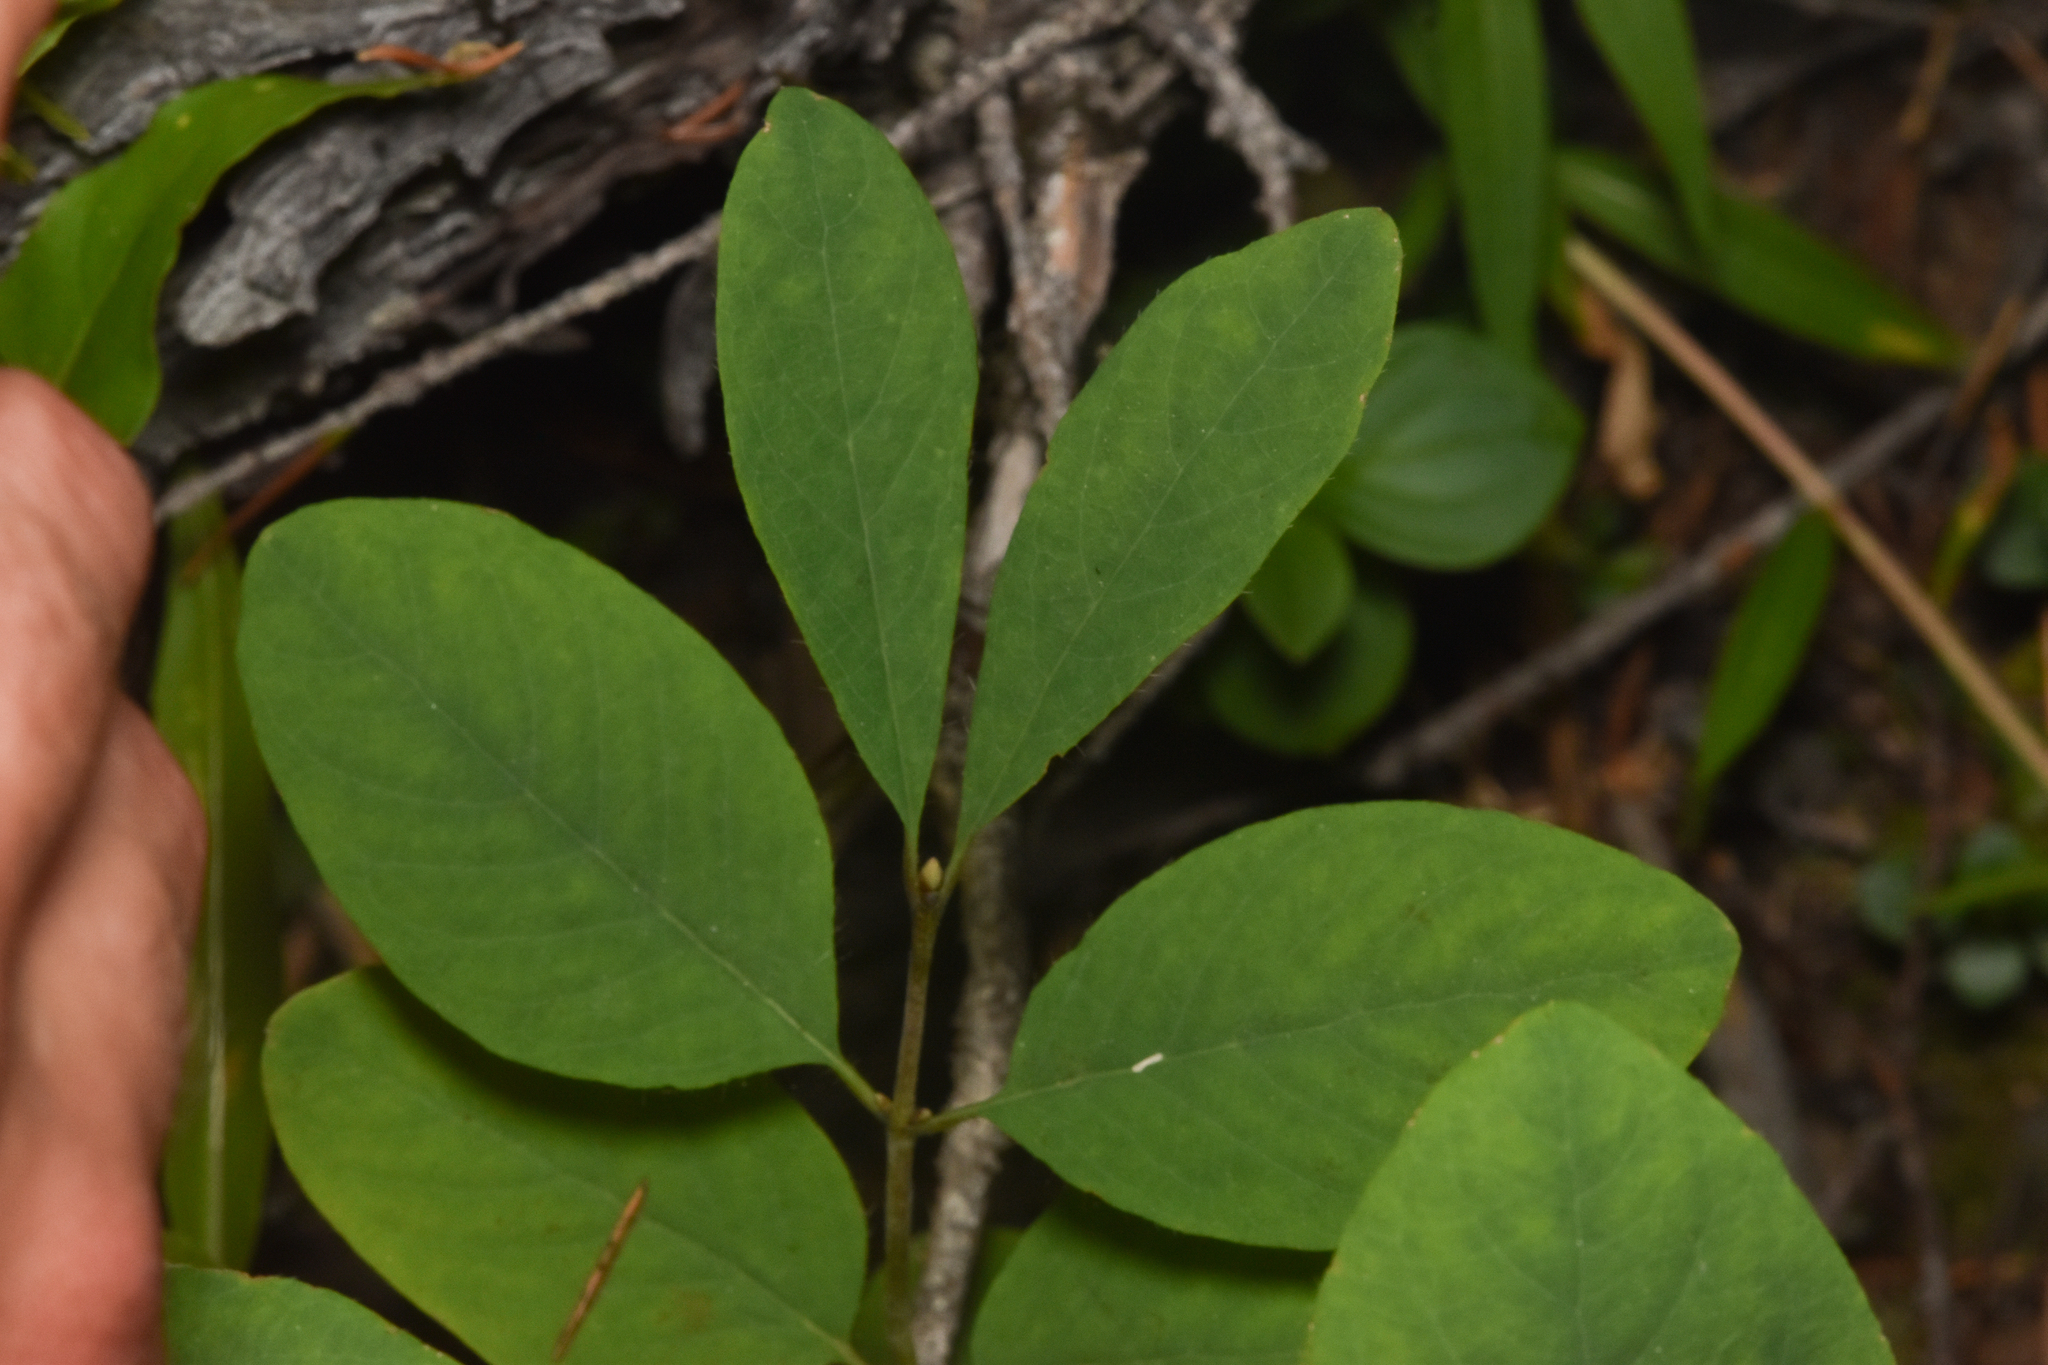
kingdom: Plantae
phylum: Tracheophyta
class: Magnoliopsida
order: Dipsacales
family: Caprifoliaceae
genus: Lonicera
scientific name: Lonicera utahensis
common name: Utah honeysuckle
